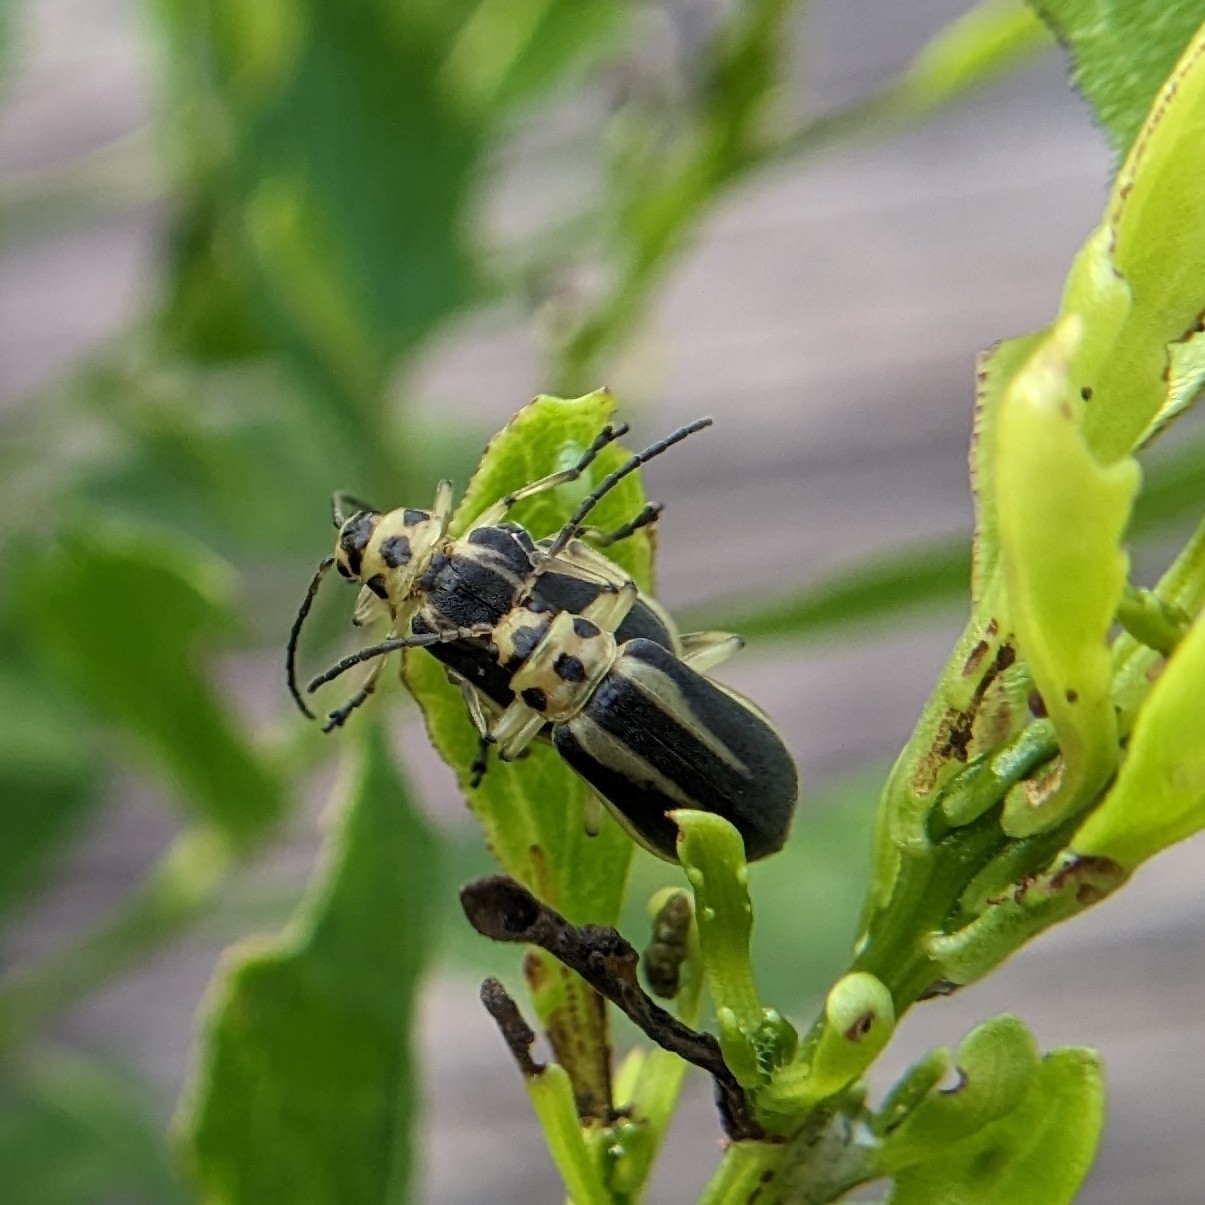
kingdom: Animalia
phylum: Arthropoda
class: Insecta
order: Coleoptera
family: Chrysomelidae
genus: Trirhabda
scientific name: Trirhabda bacharidis
